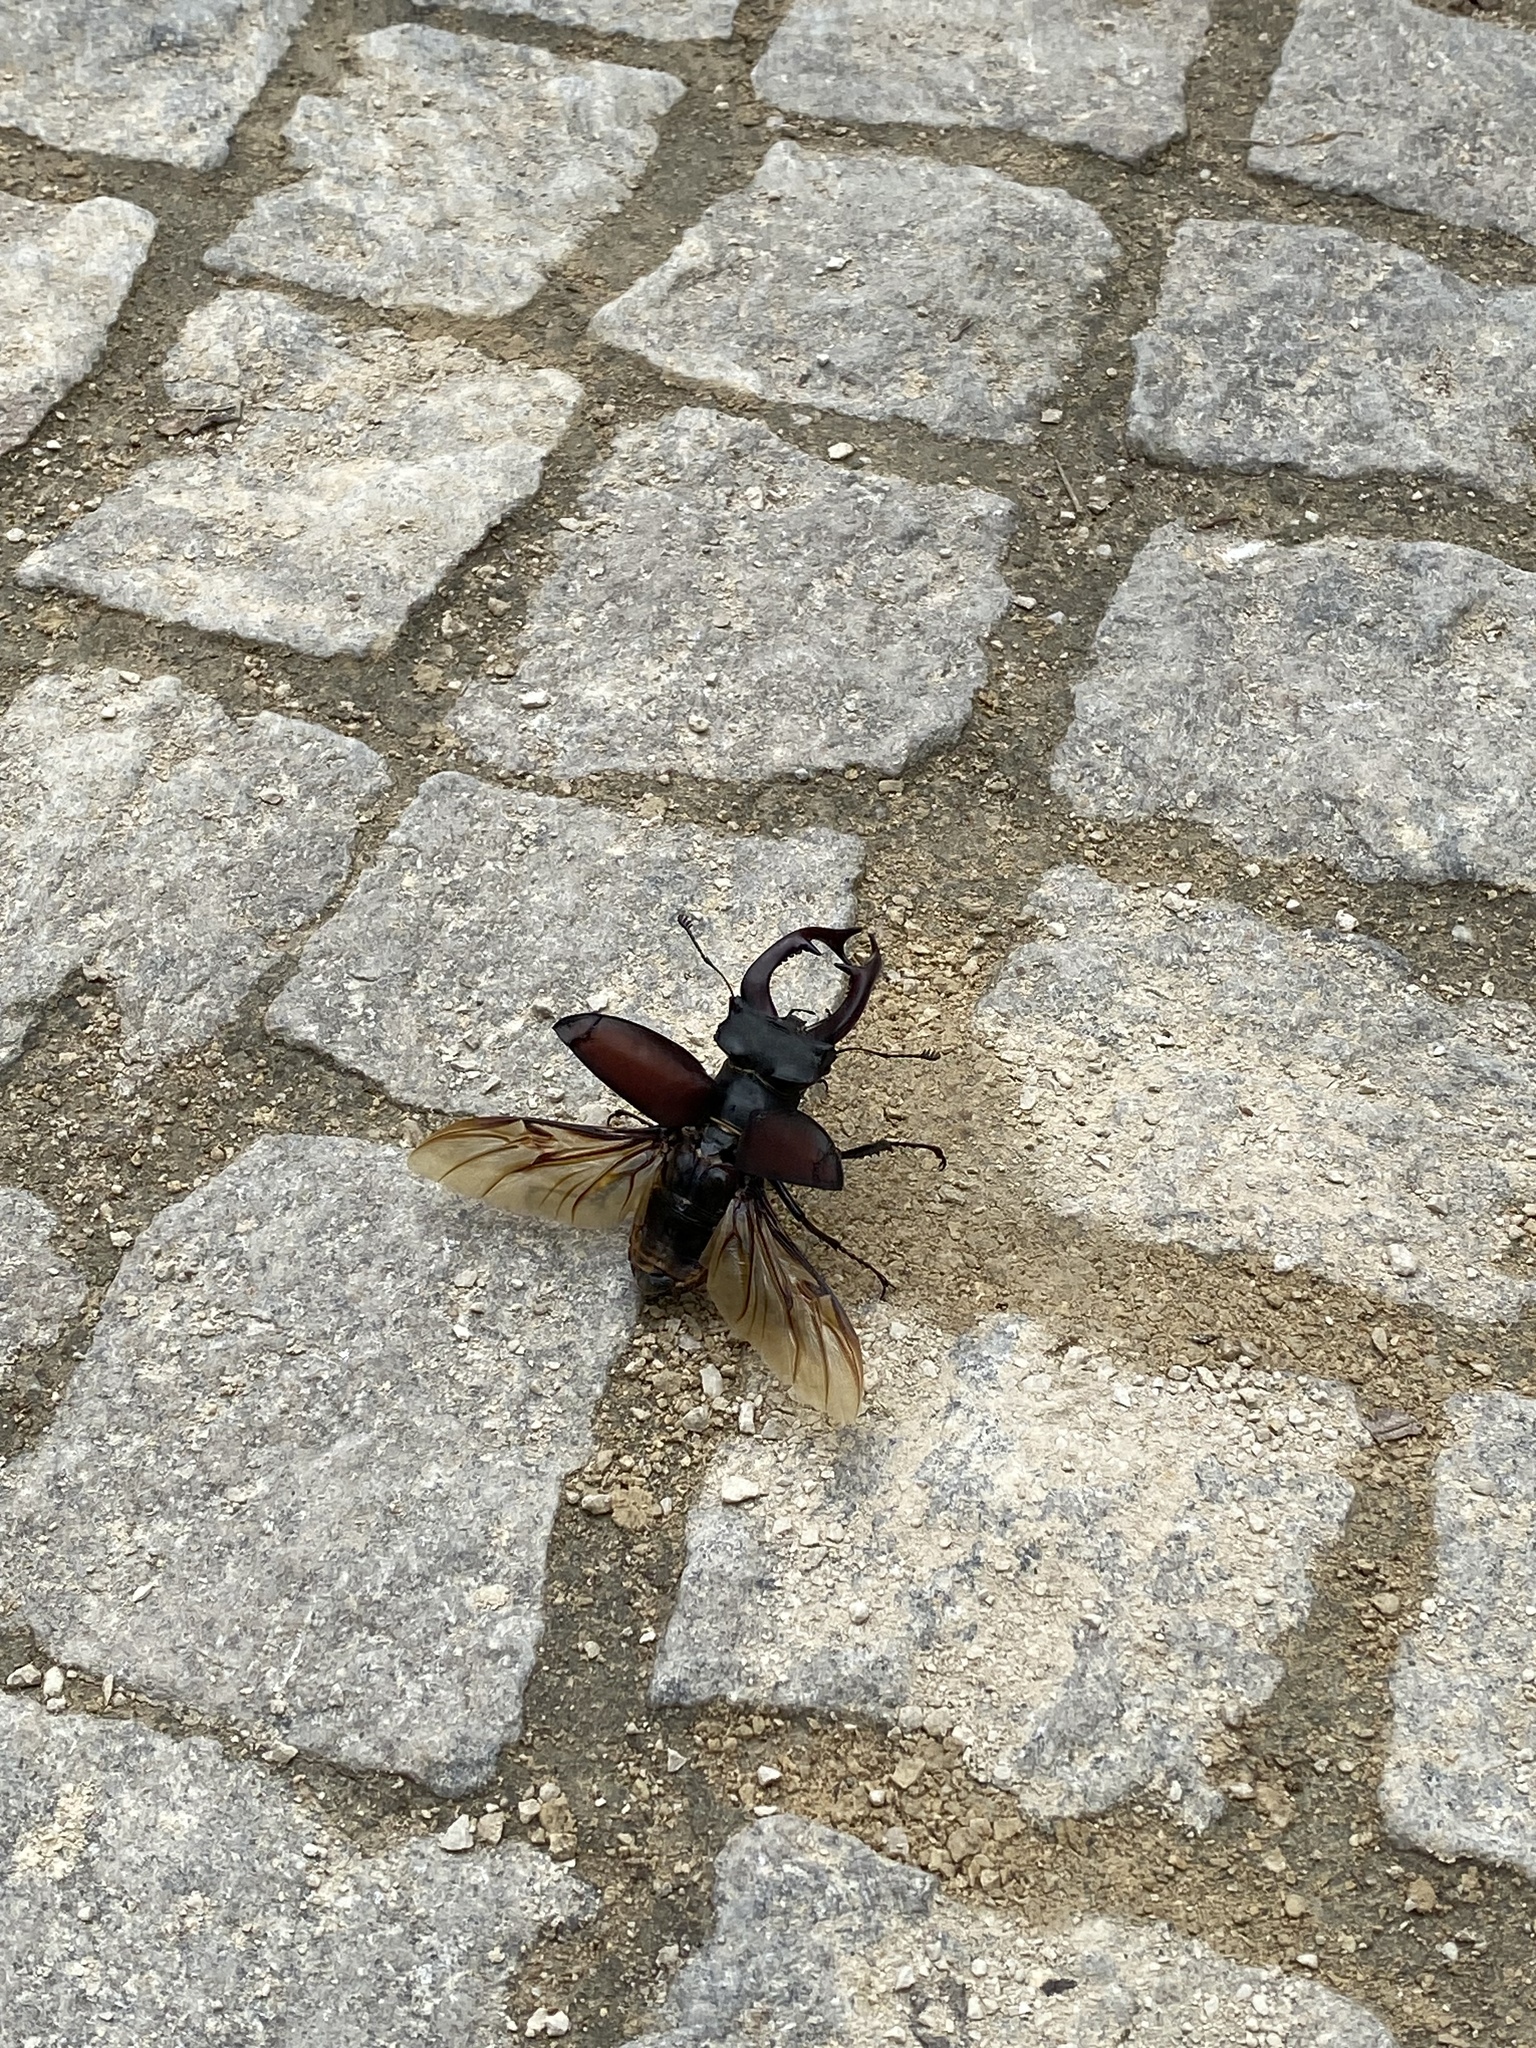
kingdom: Animalia
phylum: Arthropoda
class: Insecta
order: Coleoptera
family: Lucanidae
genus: Lucanus
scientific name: Lucanus cervus
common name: Stag beetle
